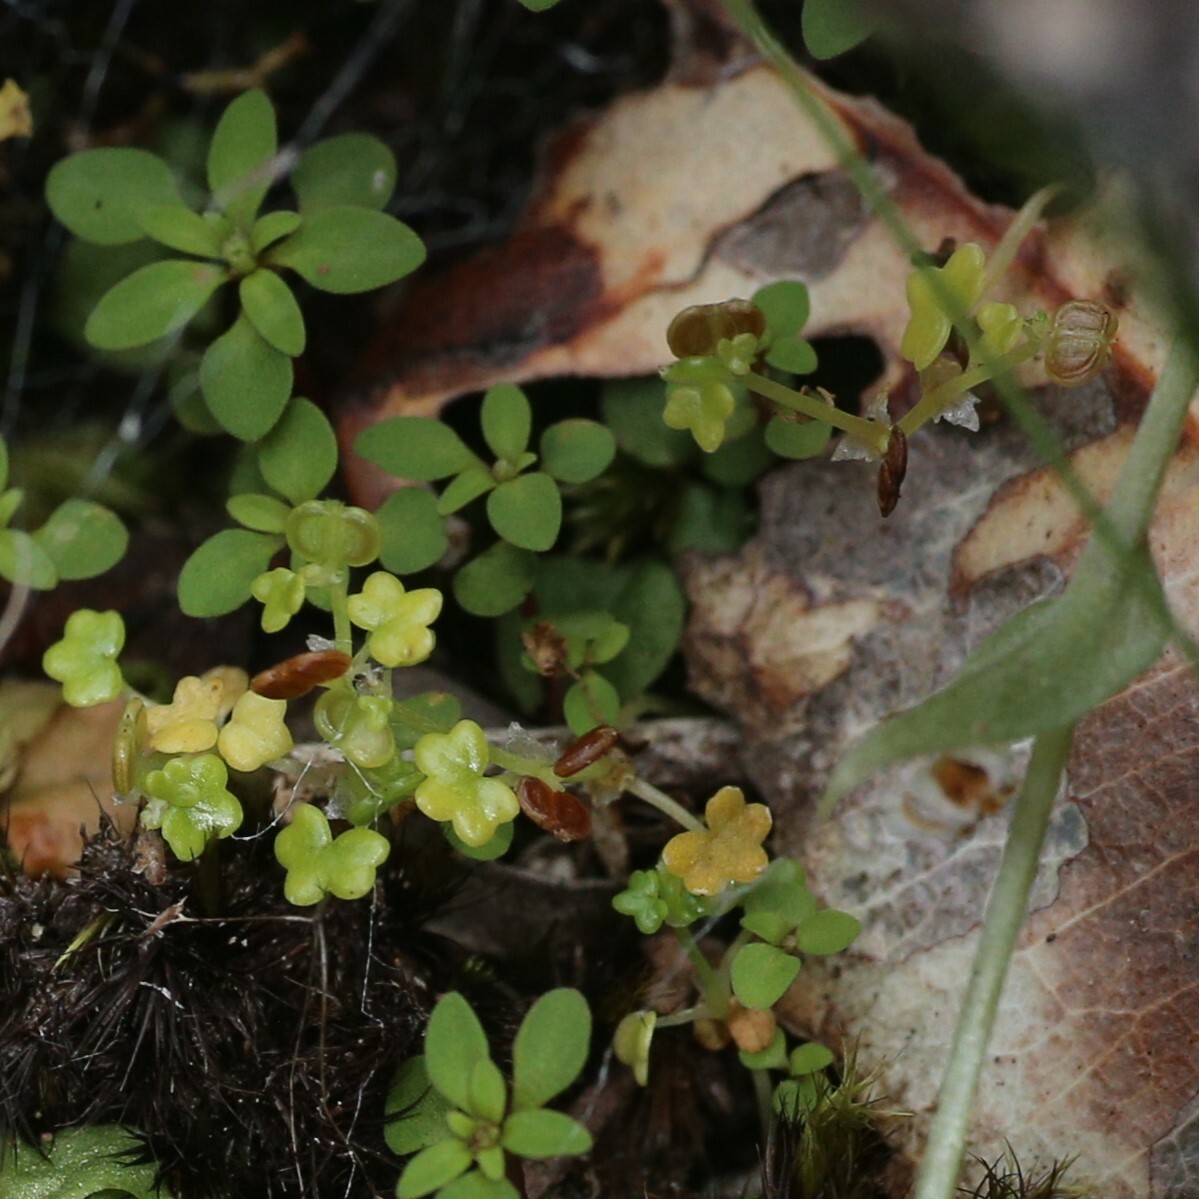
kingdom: Plantae
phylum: Tracheophyta
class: Magnoliopsida
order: Apiales
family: Araliaceae
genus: Hydrocotyle
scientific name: Hydrocotyle diantha
